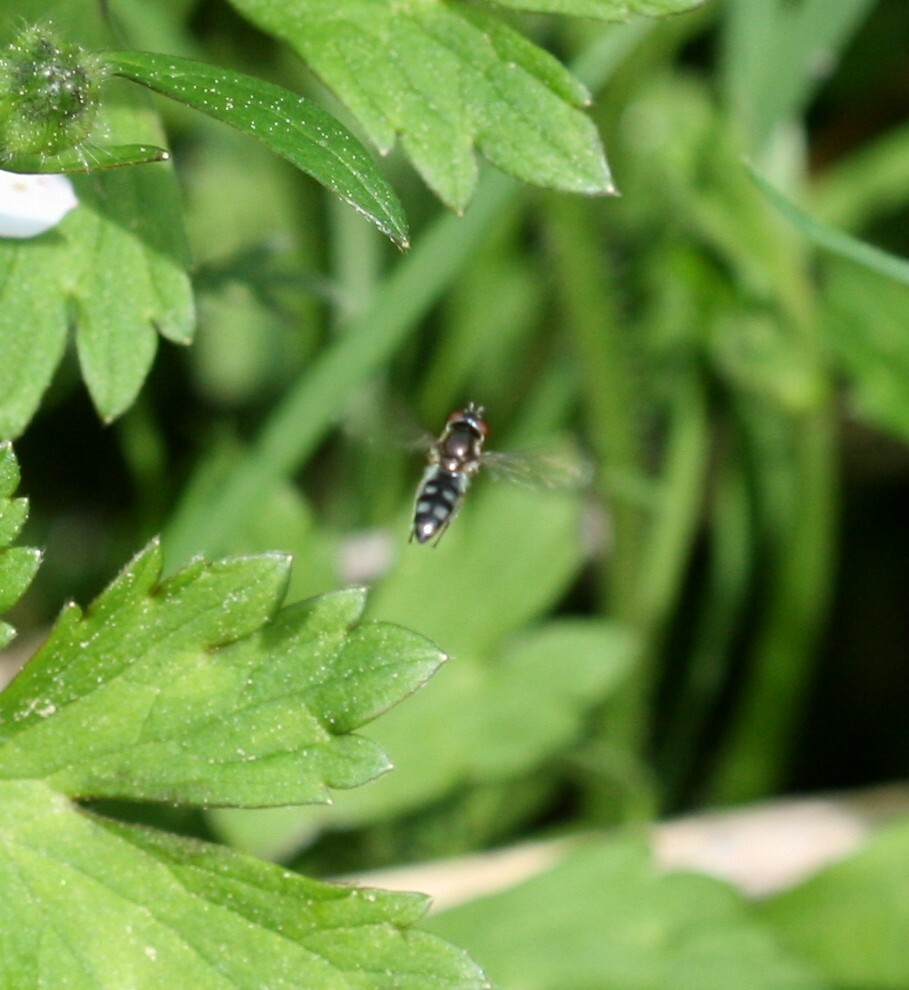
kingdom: Animalia
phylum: Arthropoda
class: Insecta
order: Diptera
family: Syrphidae
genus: Platycheirus
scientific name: Platycheirus
